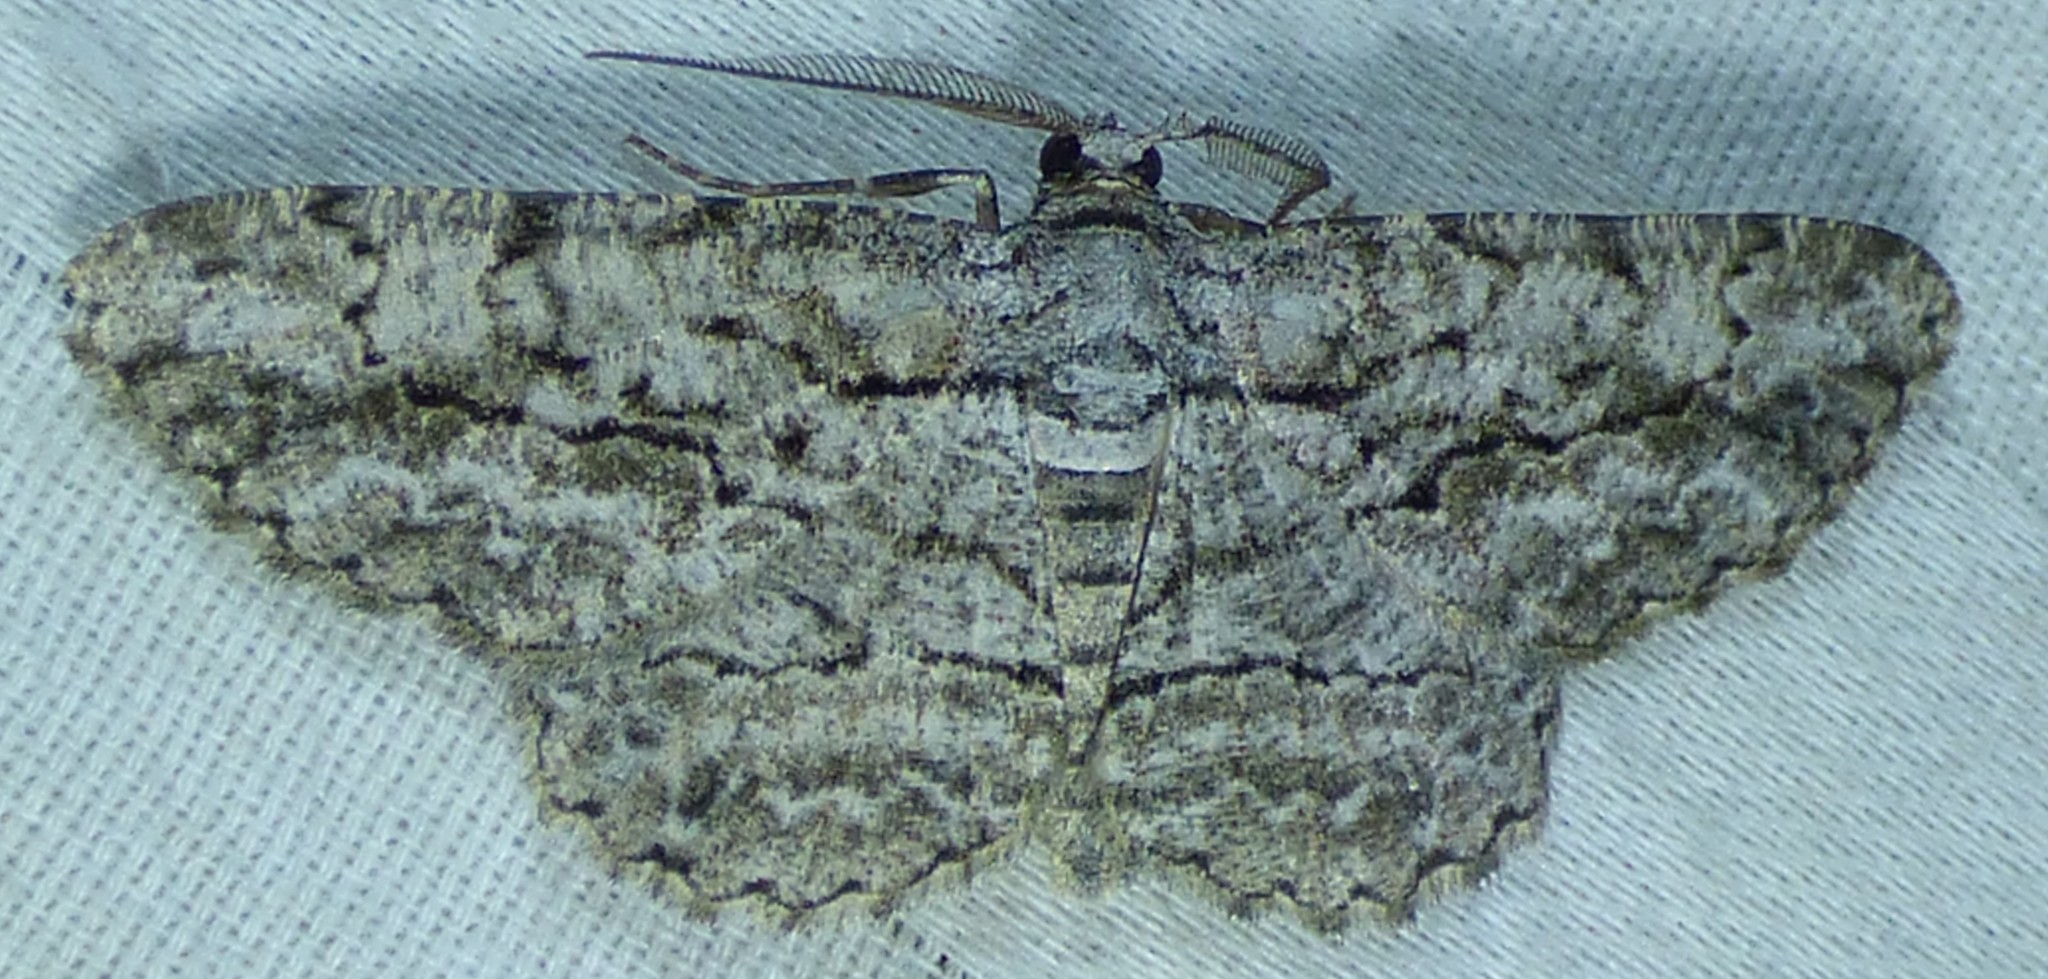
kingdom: Animalia
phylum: Arthropoda
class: Insecta
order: Lepidoptera
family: Geometridae
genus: Anavitrinella
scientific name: Anavitrinella pampinaria
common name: Common gray
